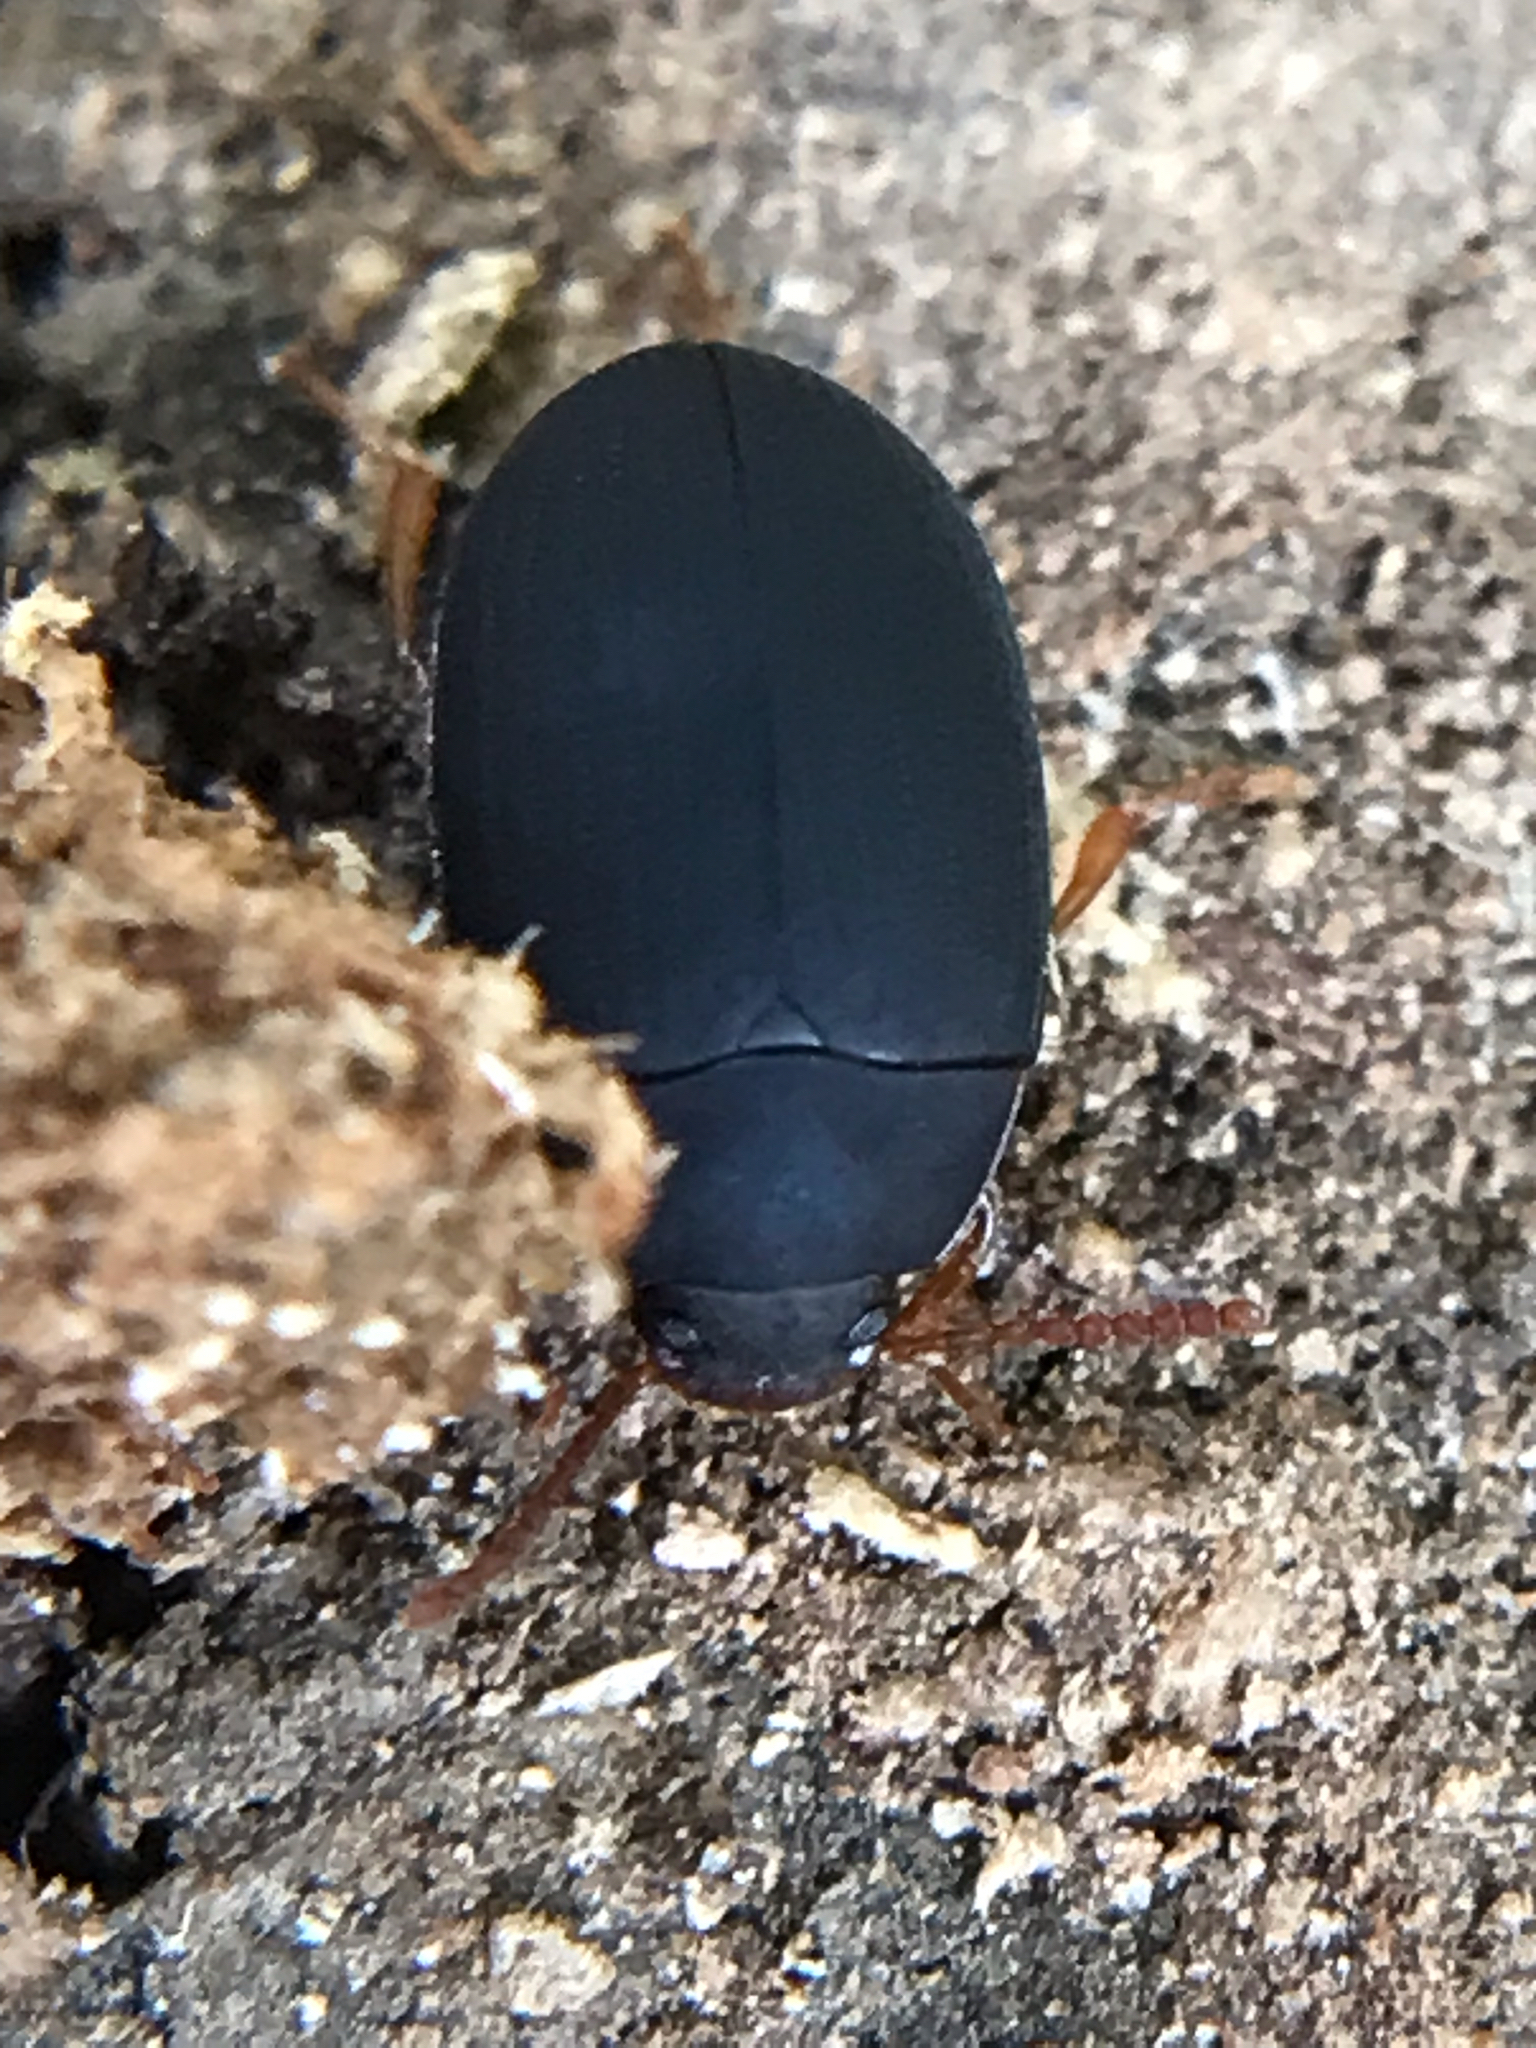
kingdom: Animalia
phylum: Arthropoda
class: Insecta
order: Coleoptera
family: Tenebrionidae
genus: Platydema
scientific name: Platydema ruficornis
